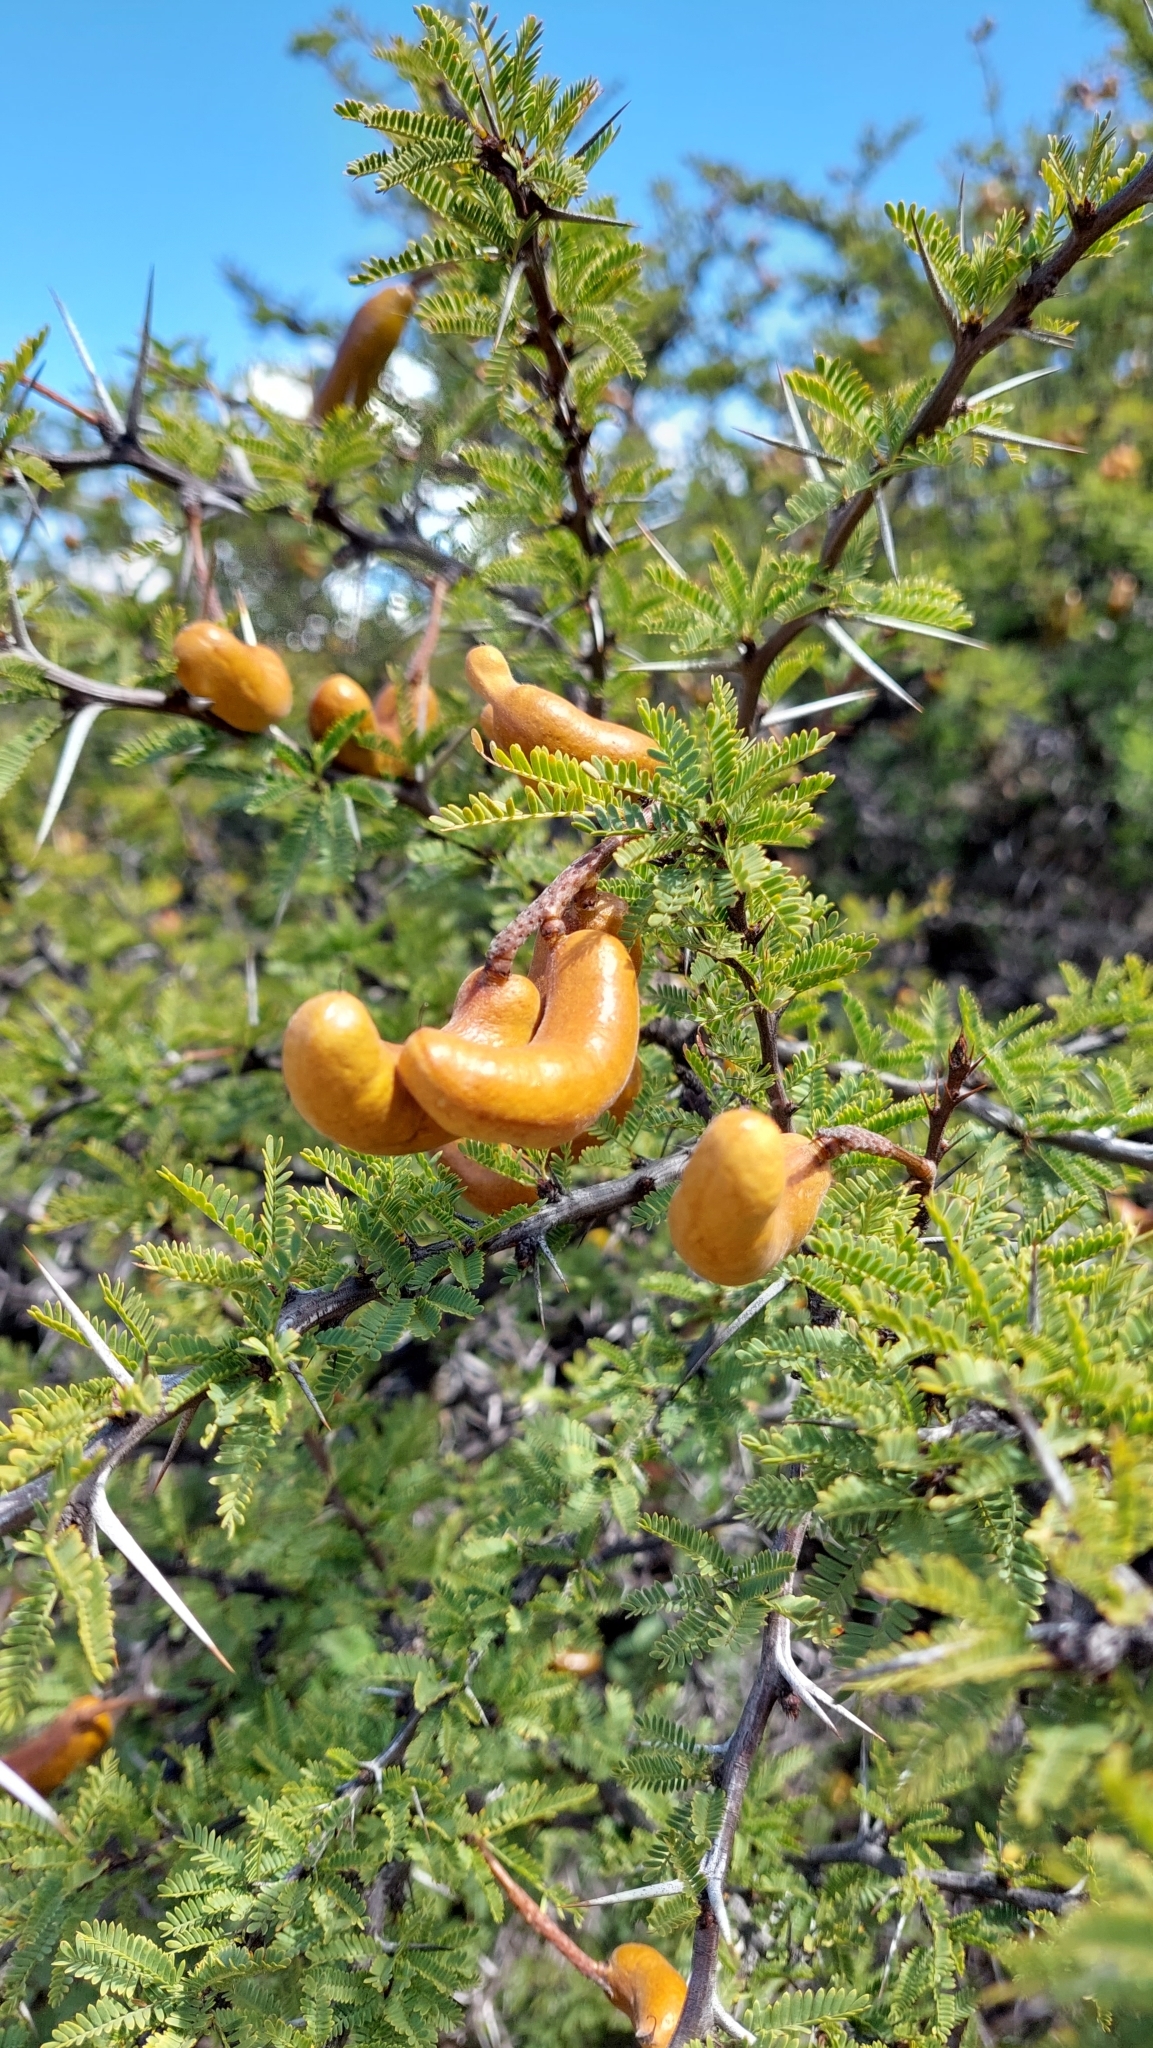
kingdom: Plantae
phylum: Tracheophyta
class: Magnoliopsida
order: Fabales
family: Fabaceae
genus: Prosopis
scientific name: Prosopis ferox
